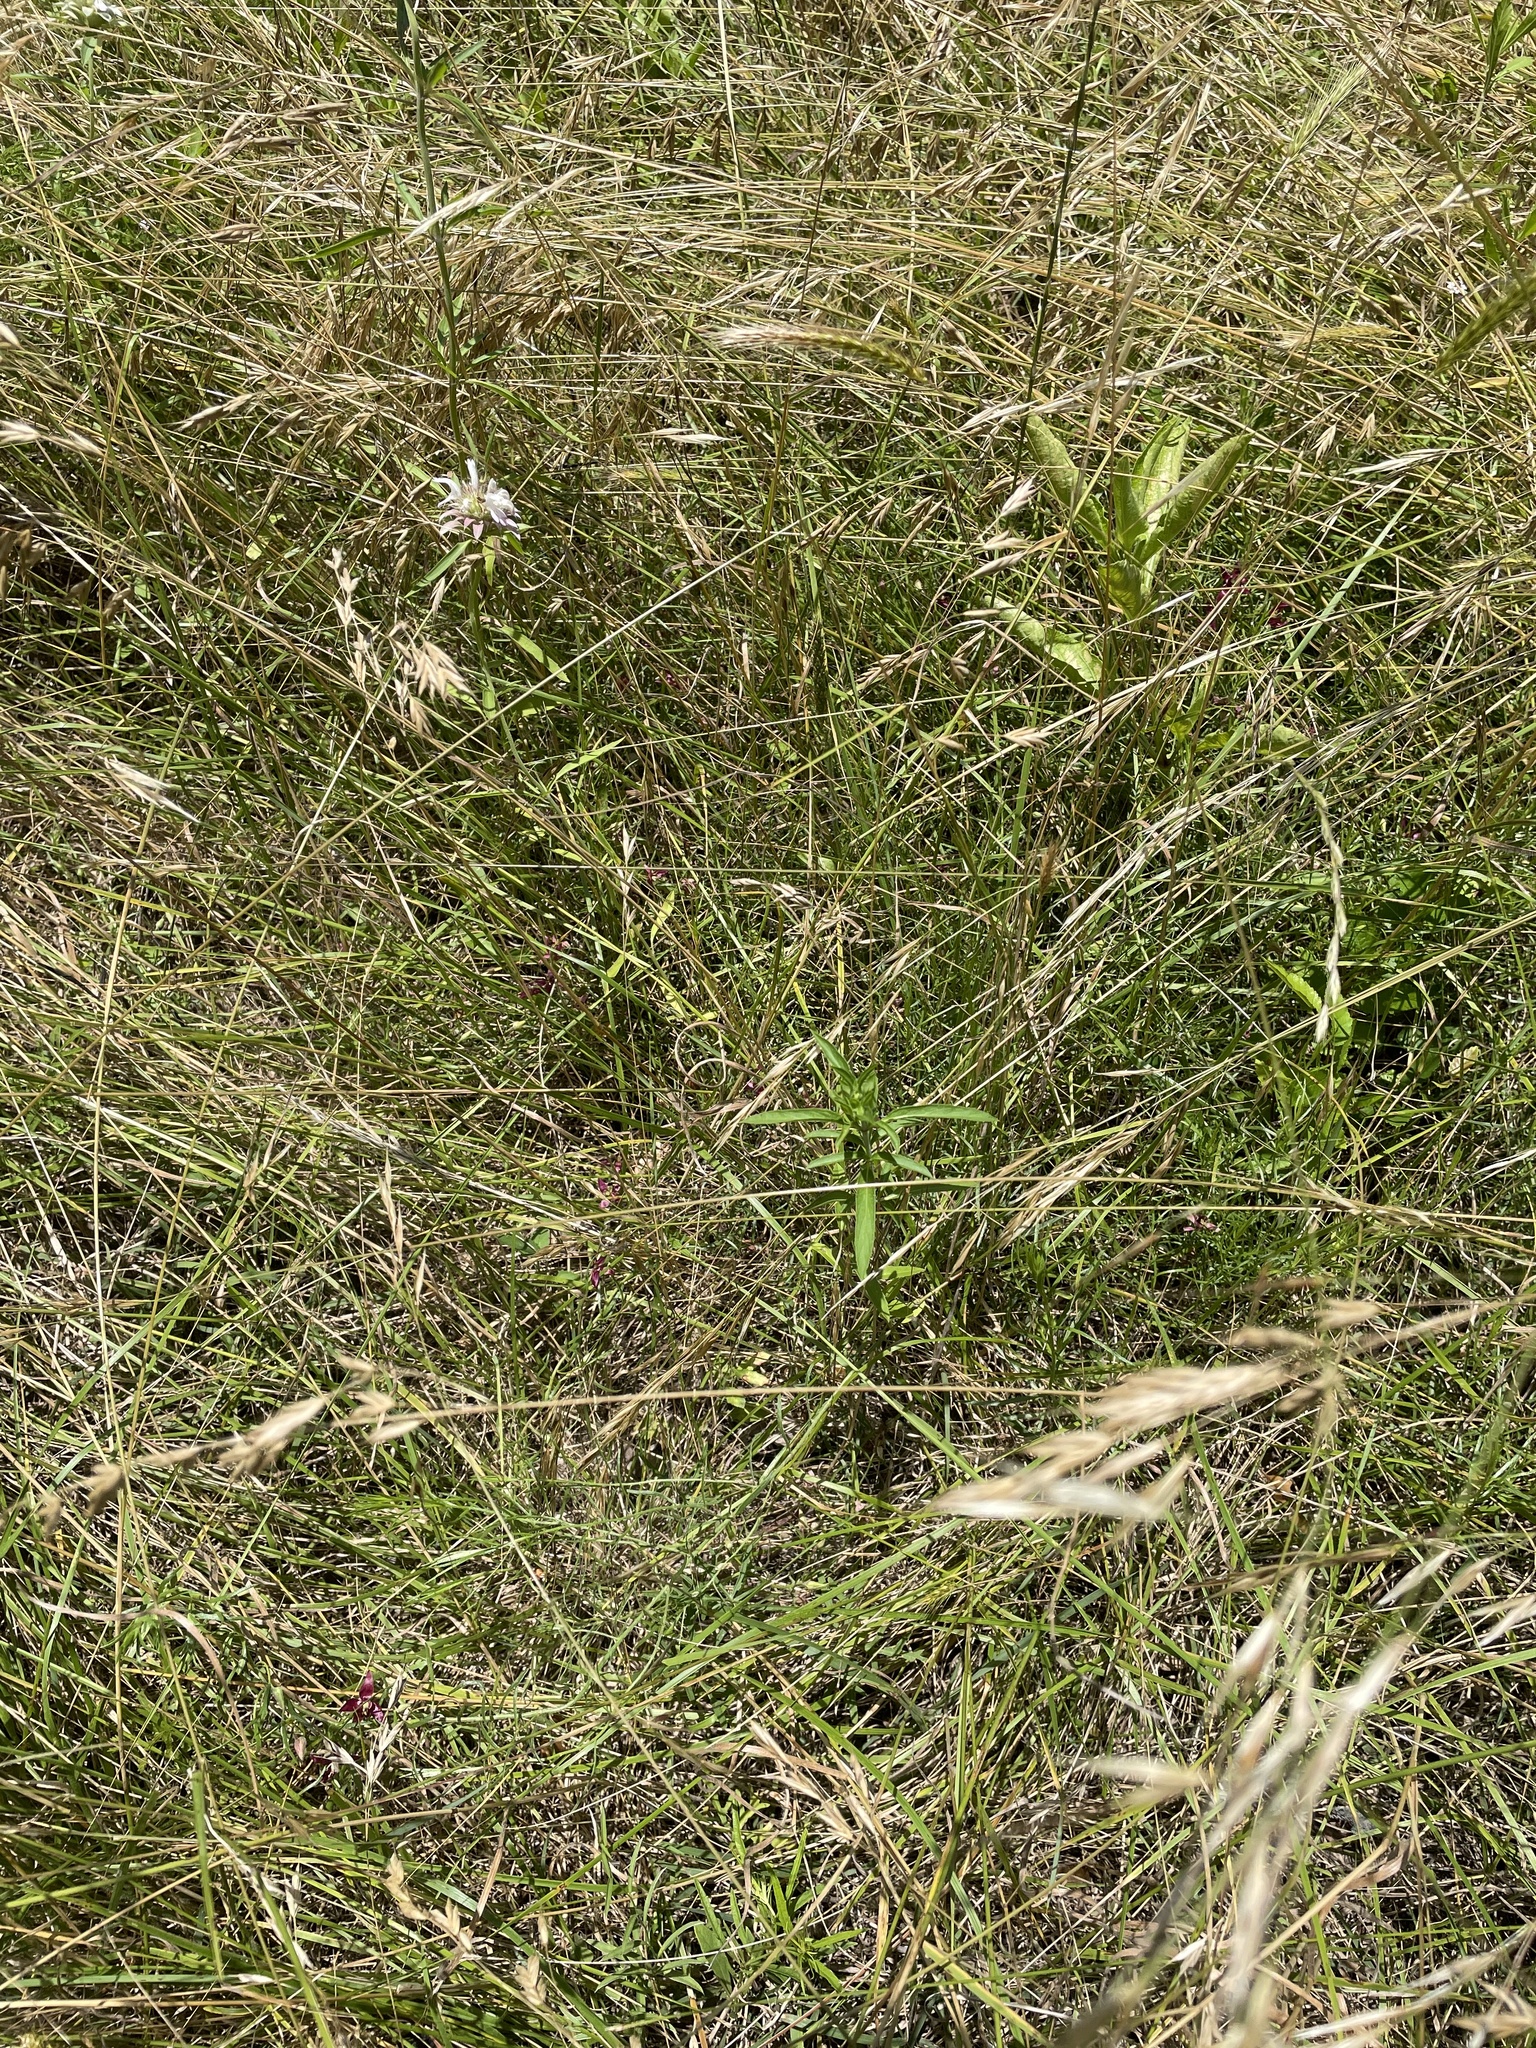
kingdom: Plantae
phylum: Tracheophyta
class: Magnoliopsida
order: Zygophyllales
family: Krameriaceae
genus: Krameria
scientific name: Krameria lanceolata
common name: Ratany
